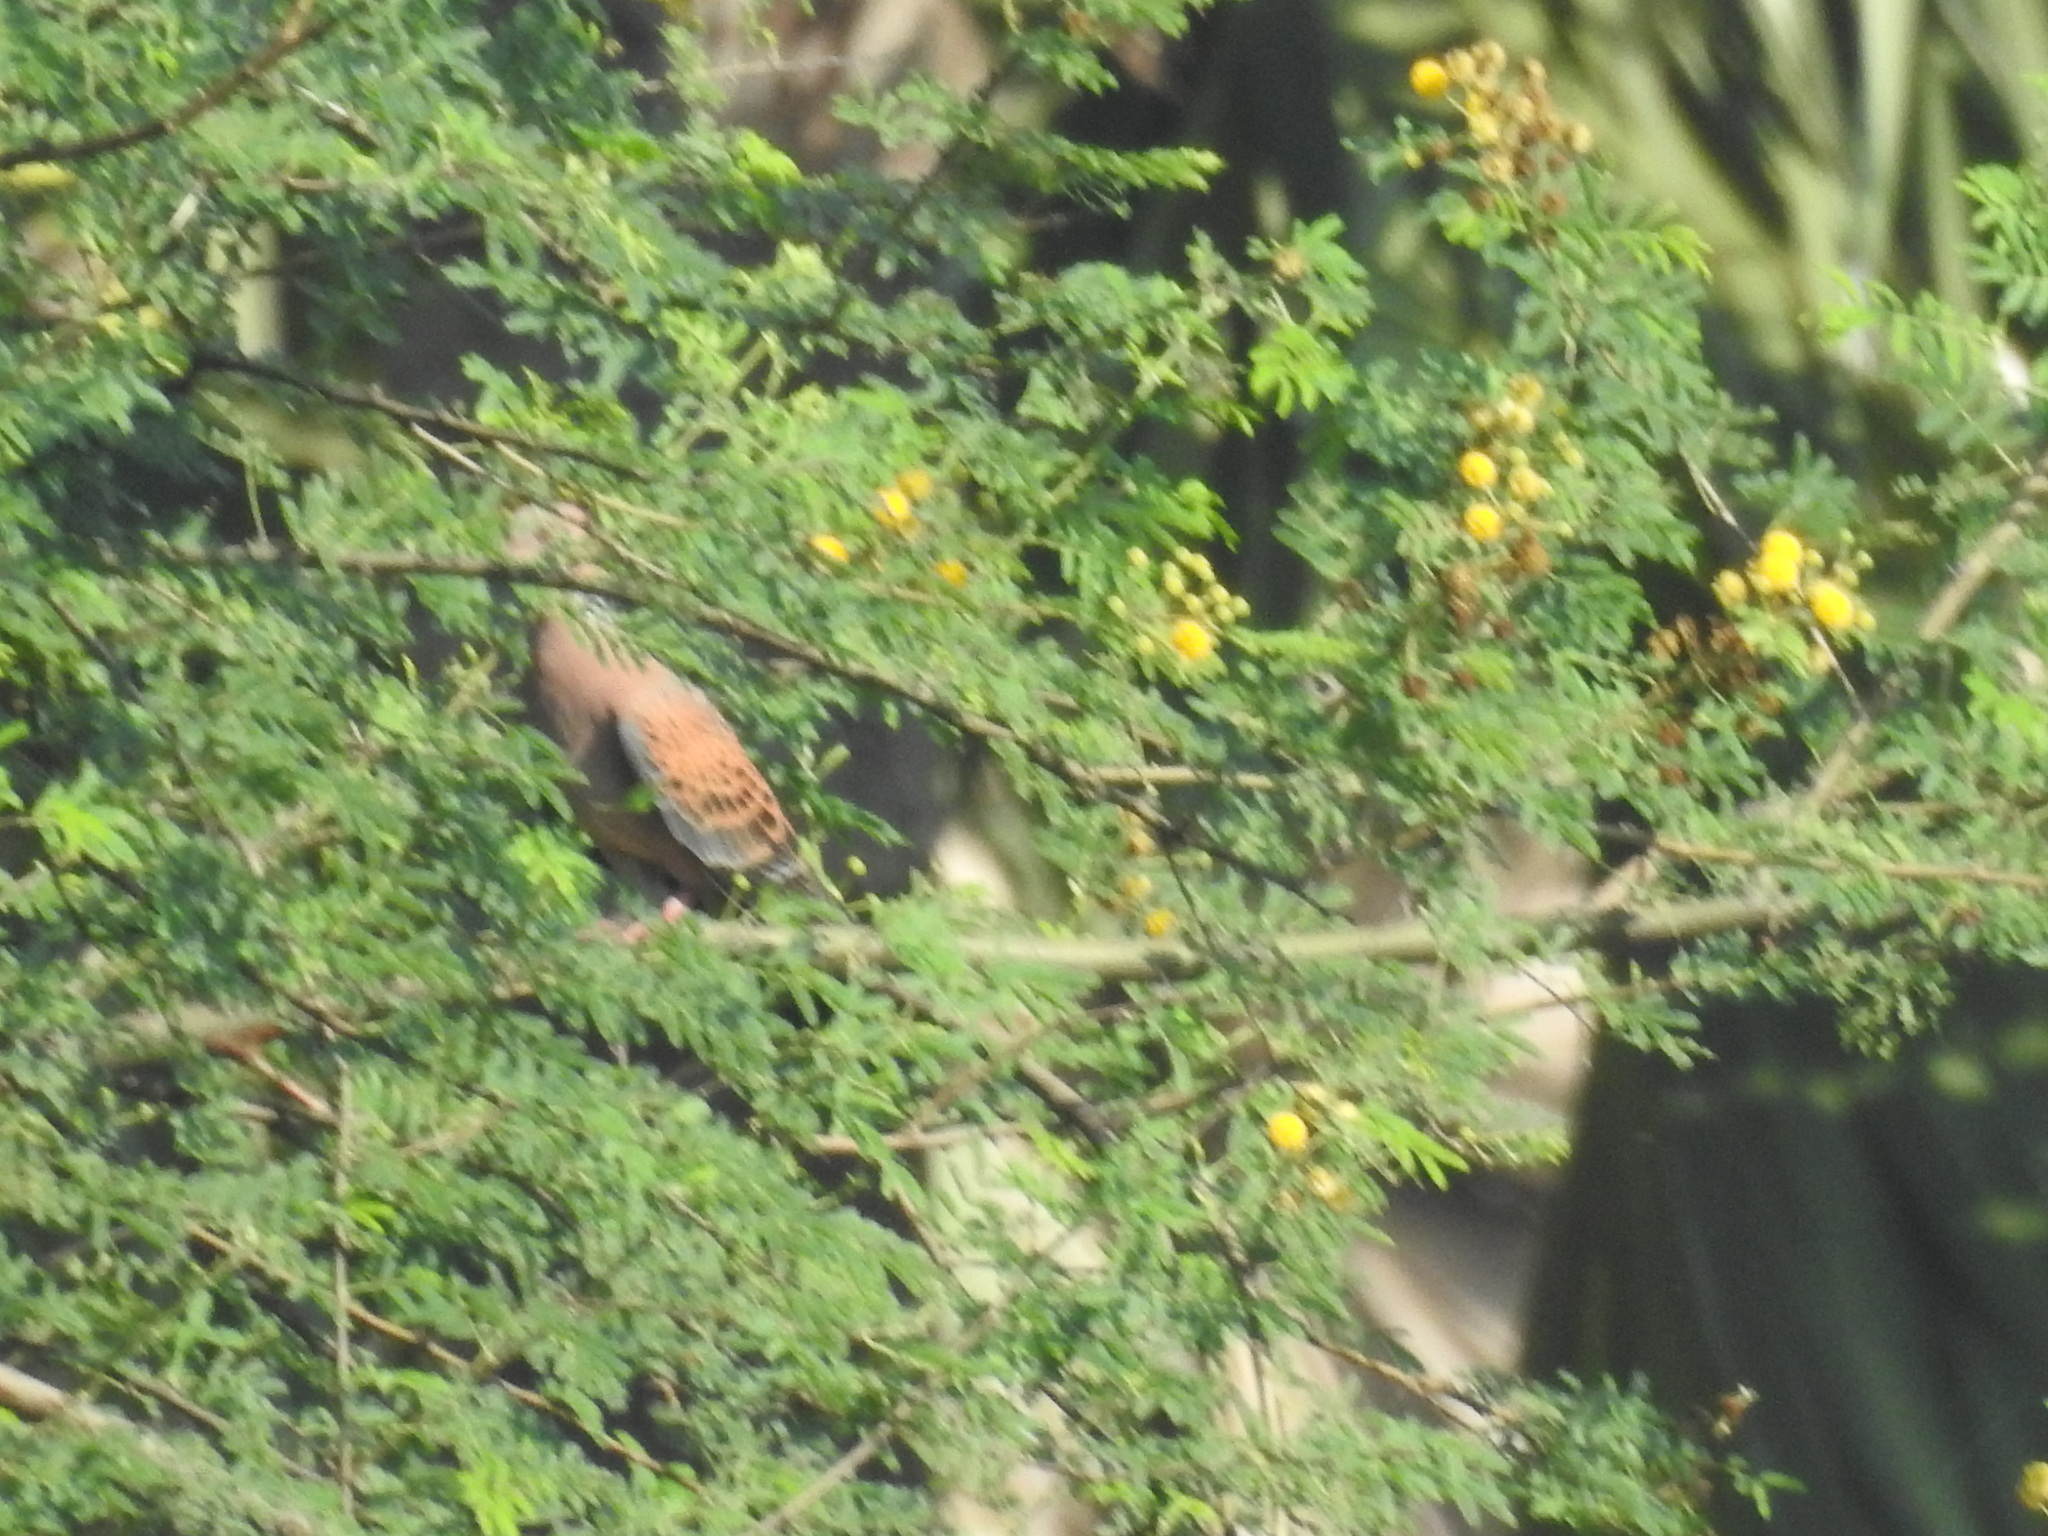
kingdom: Animalia
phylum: Chordata
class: Aves
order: Columbiformes
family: Columbidae
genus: Streptopelia
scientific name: Streptopelia orientalis
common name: Oriental turtle dove
